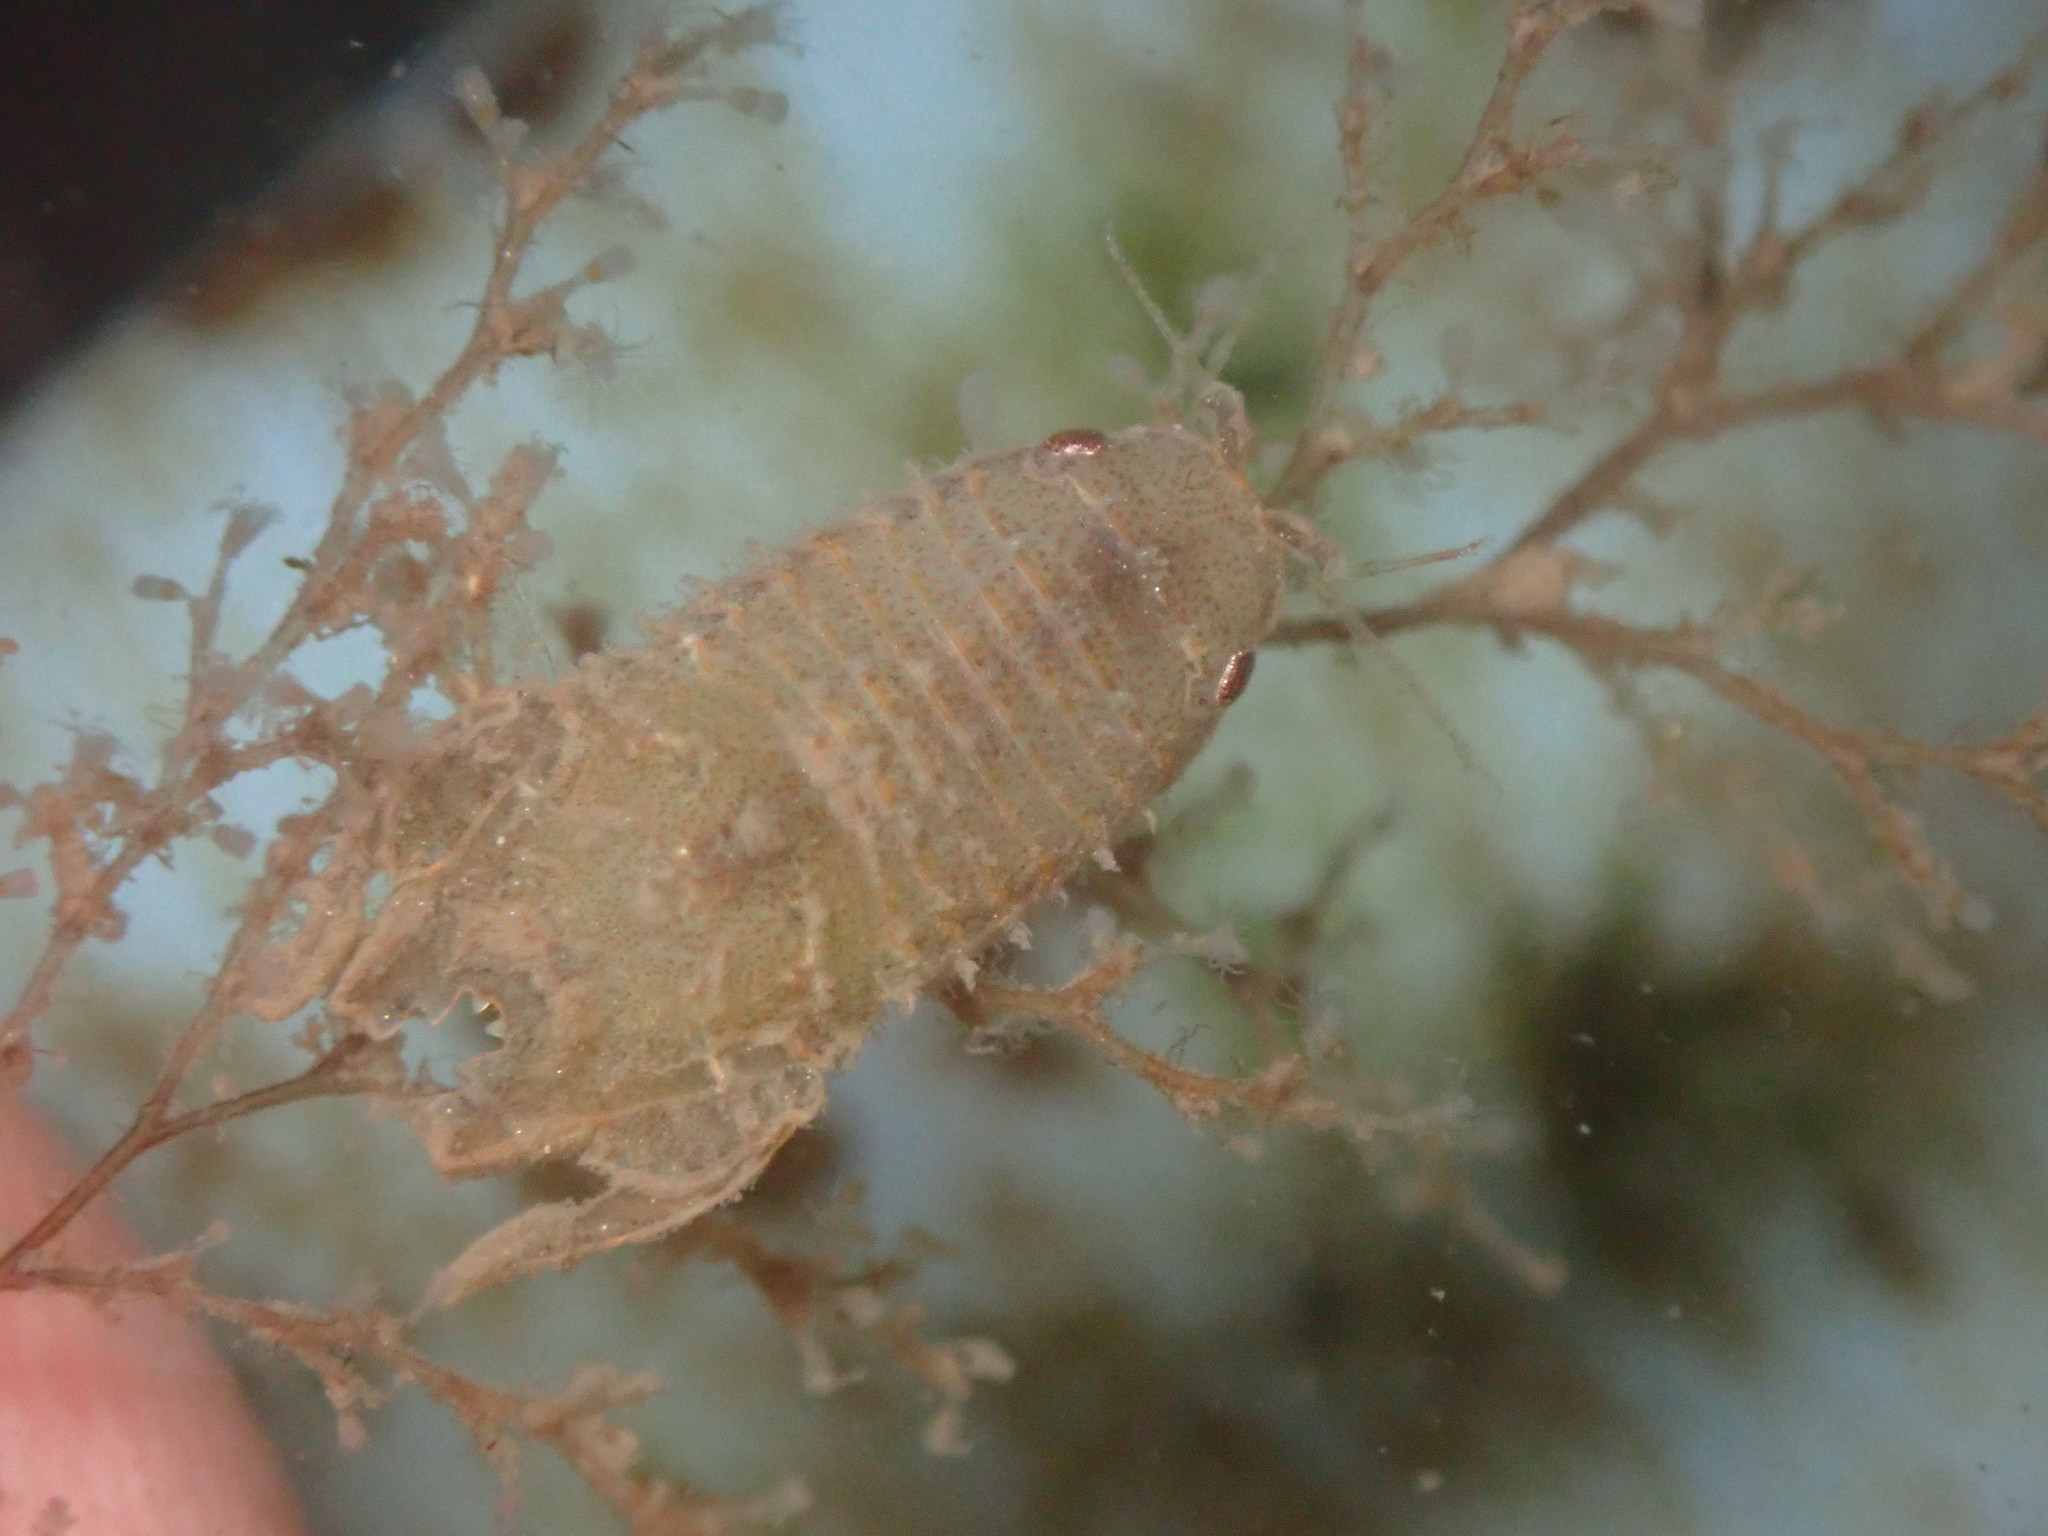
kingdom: Animalia
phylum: Arthropoda
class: Malacostraca
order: Isopoda
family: Sphaeromatidae
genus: Paracerceis
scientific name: Paracerceis cordata
